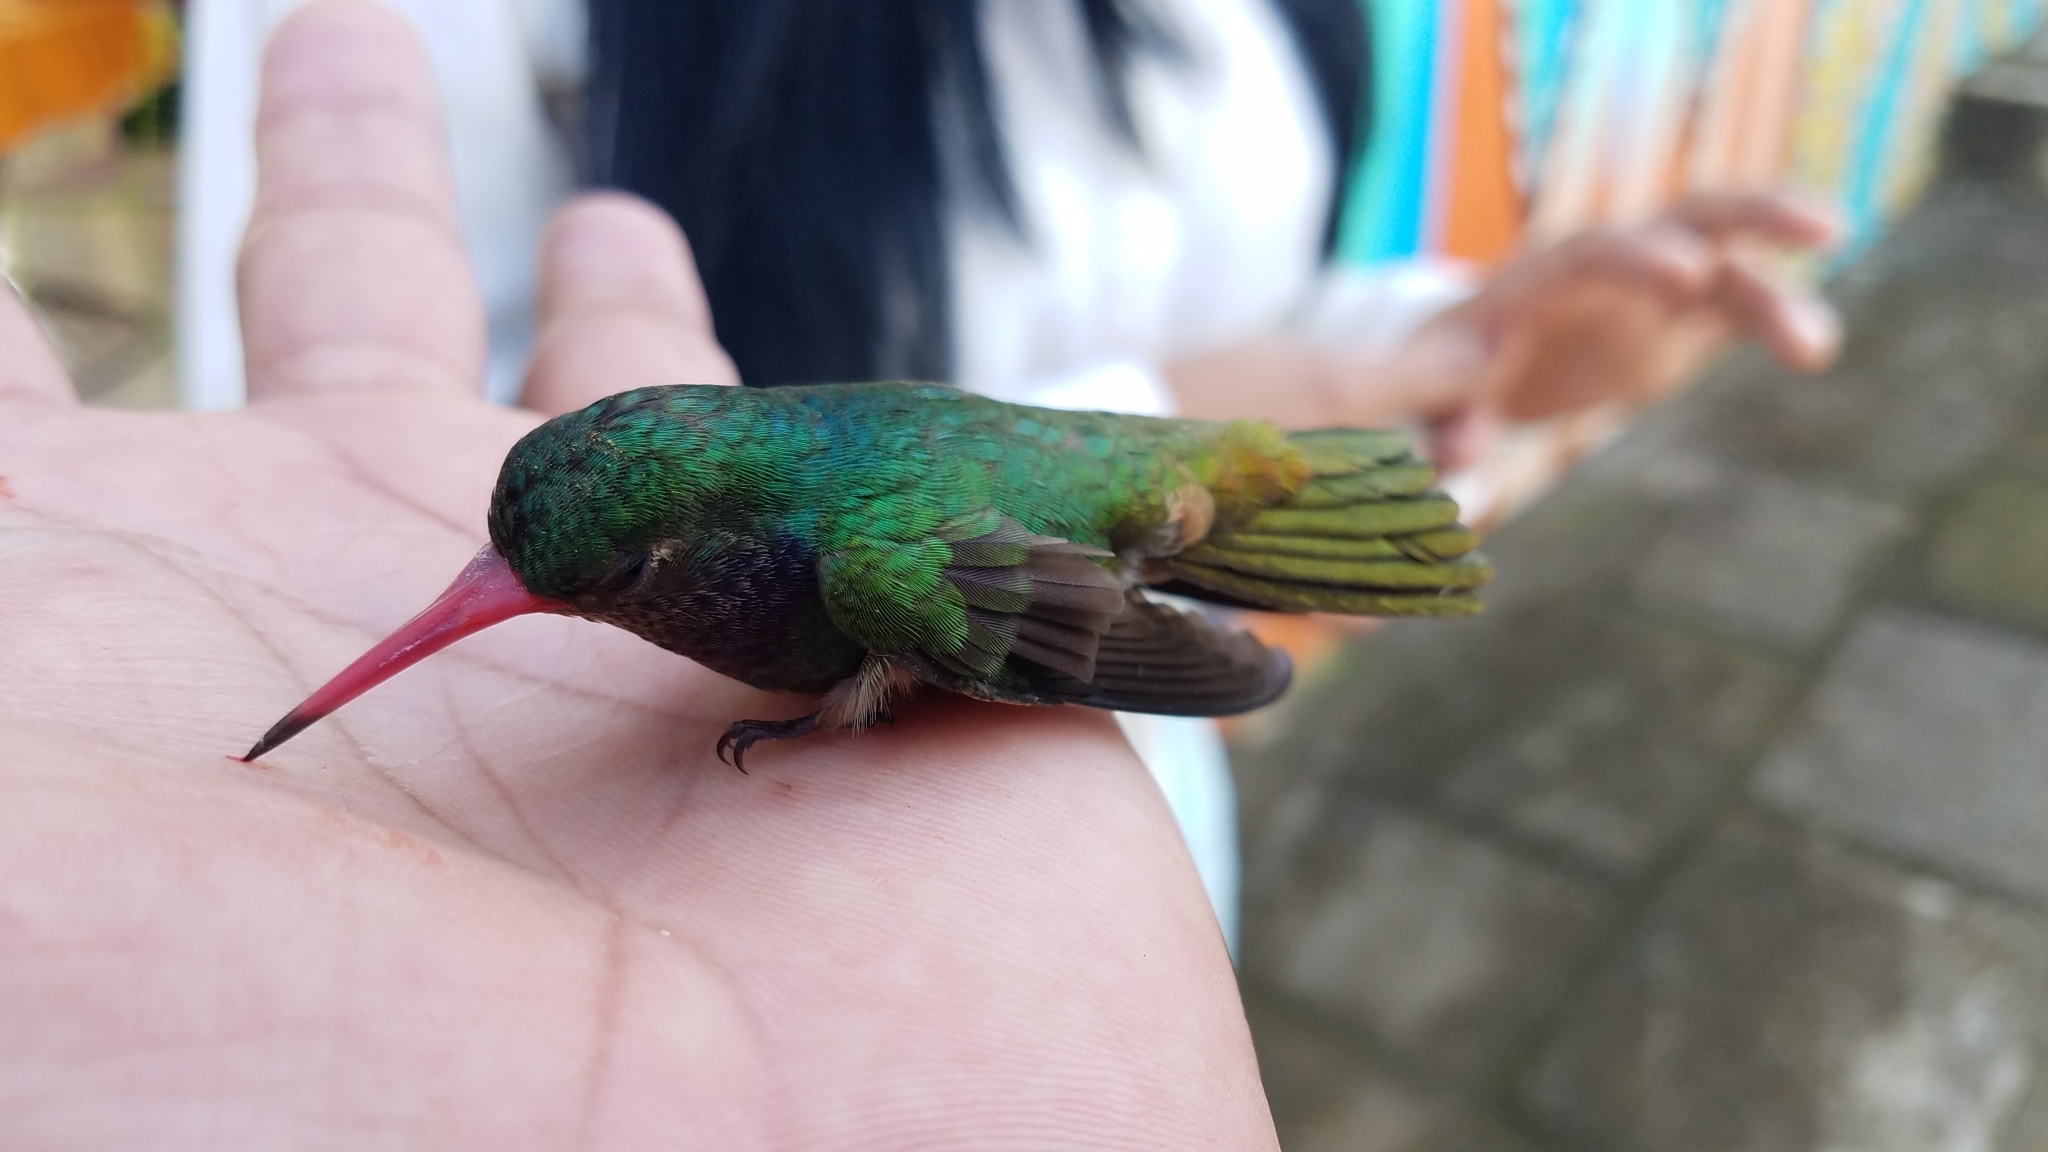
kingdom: Animalia
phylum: Chordata
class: Aves
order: Apodiformes
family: Trochilidae
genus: Chlorestes
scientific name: Chlorestes eliciae
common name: Blue-throated sapphire
